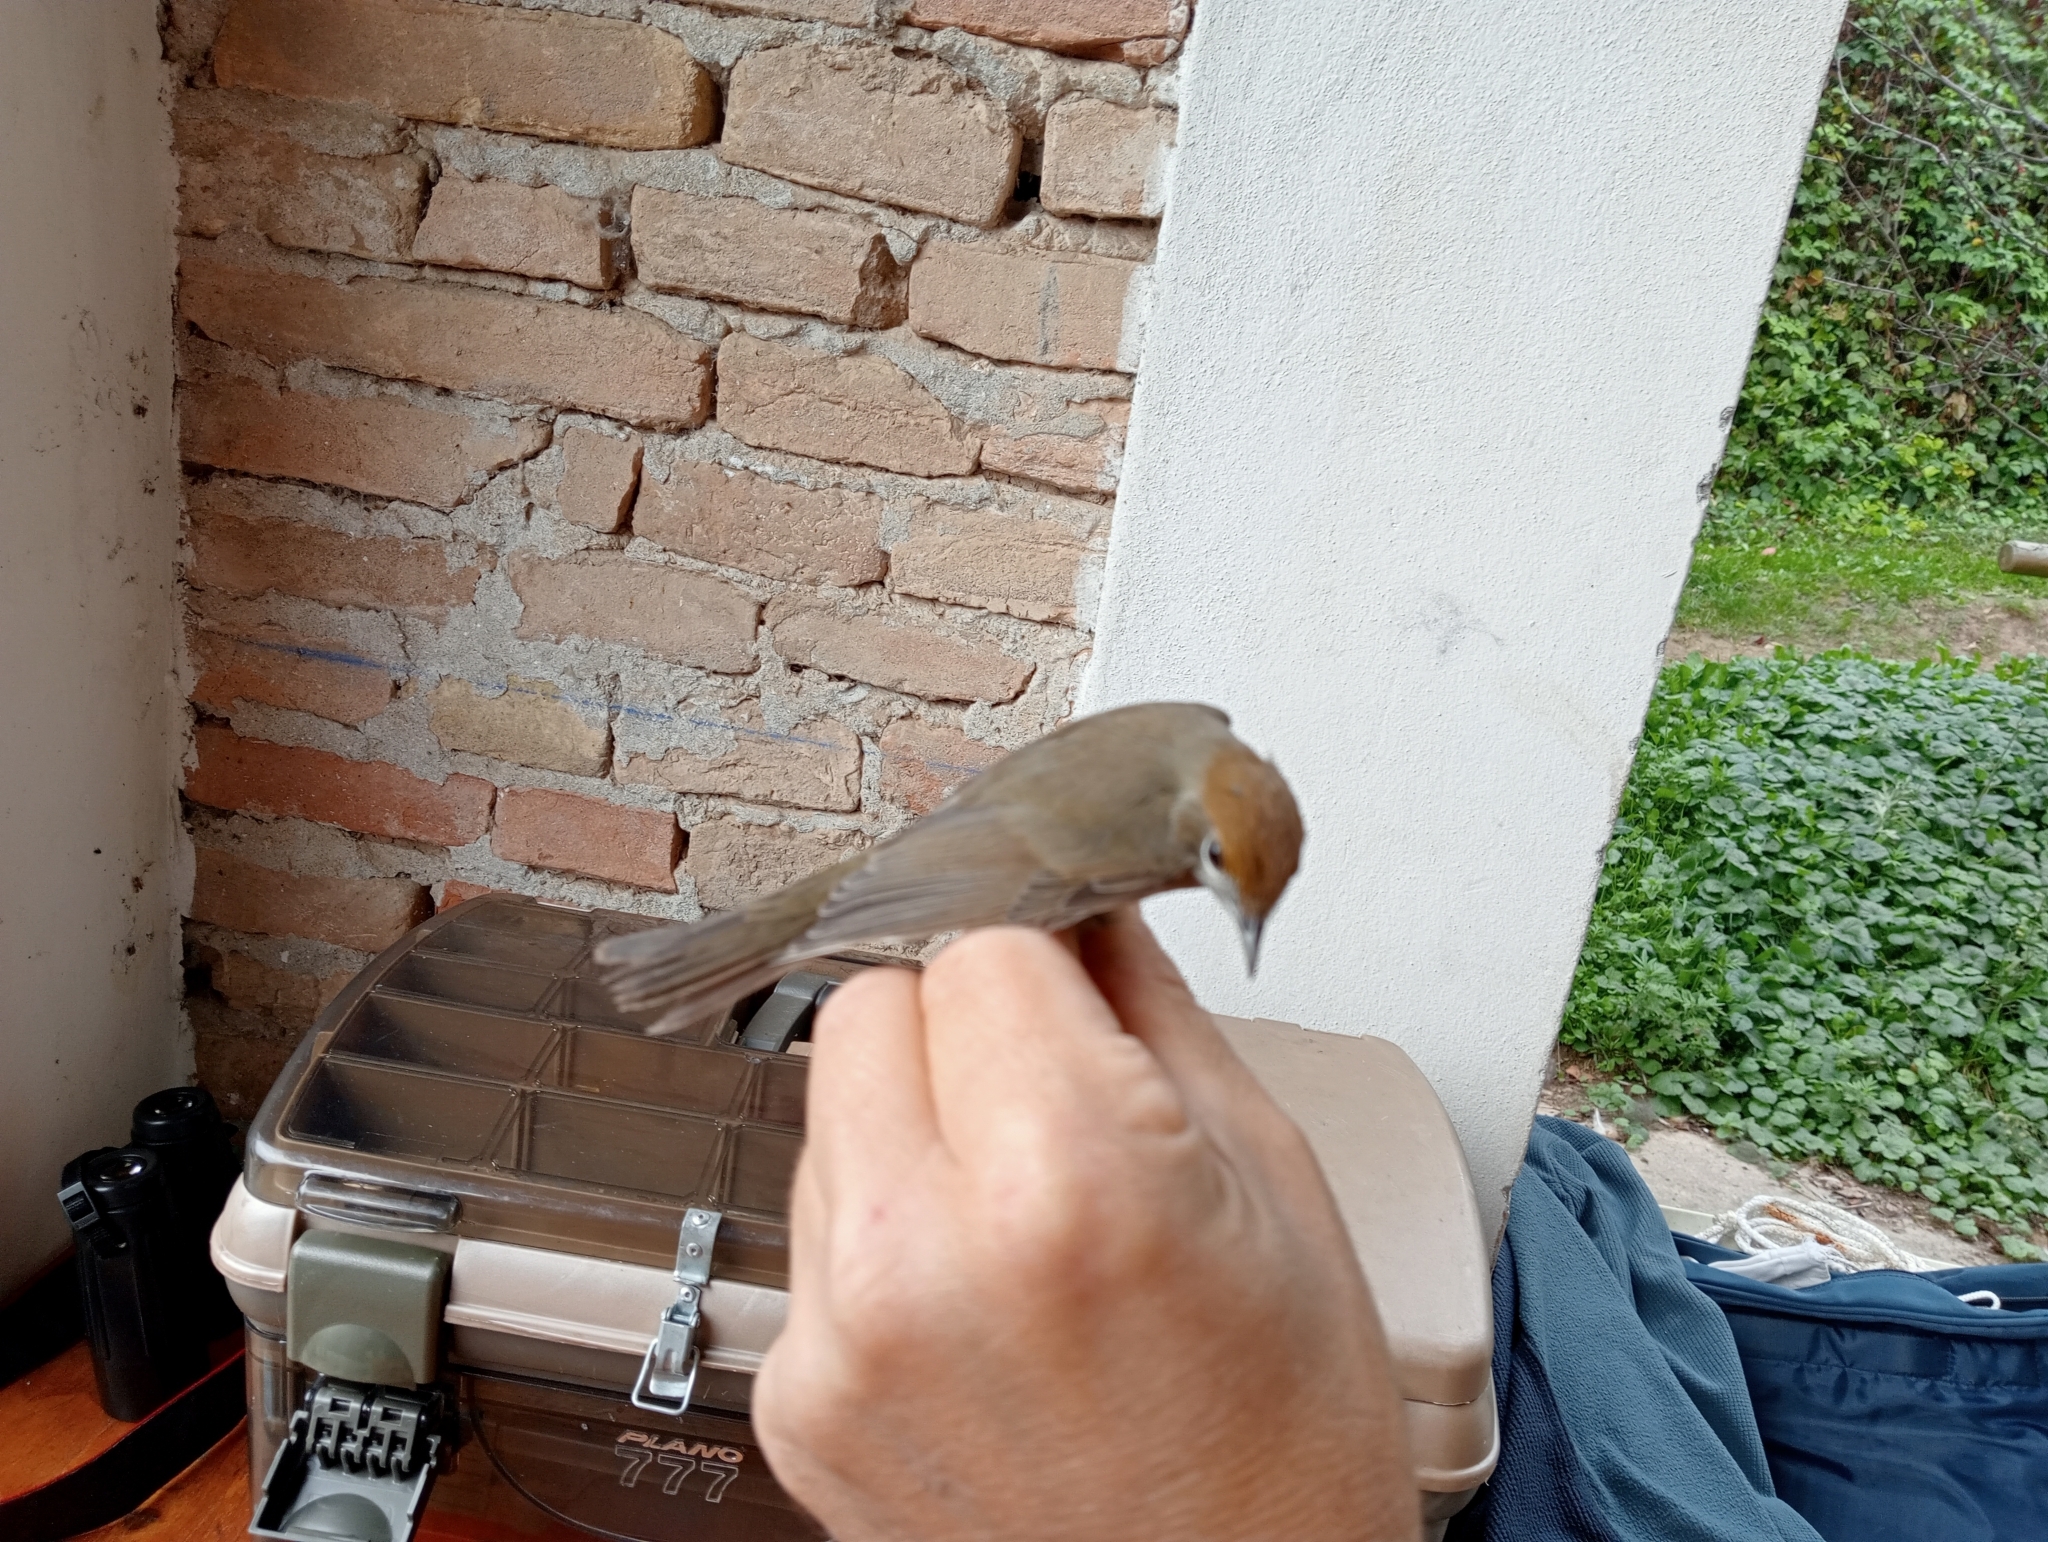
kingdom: Animalia
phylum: Chordata
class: Aves
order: Passeriformes
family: Sylviidae
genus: Sylvia
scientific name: Sylvia atricapilla
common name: Eurasian blackcap
